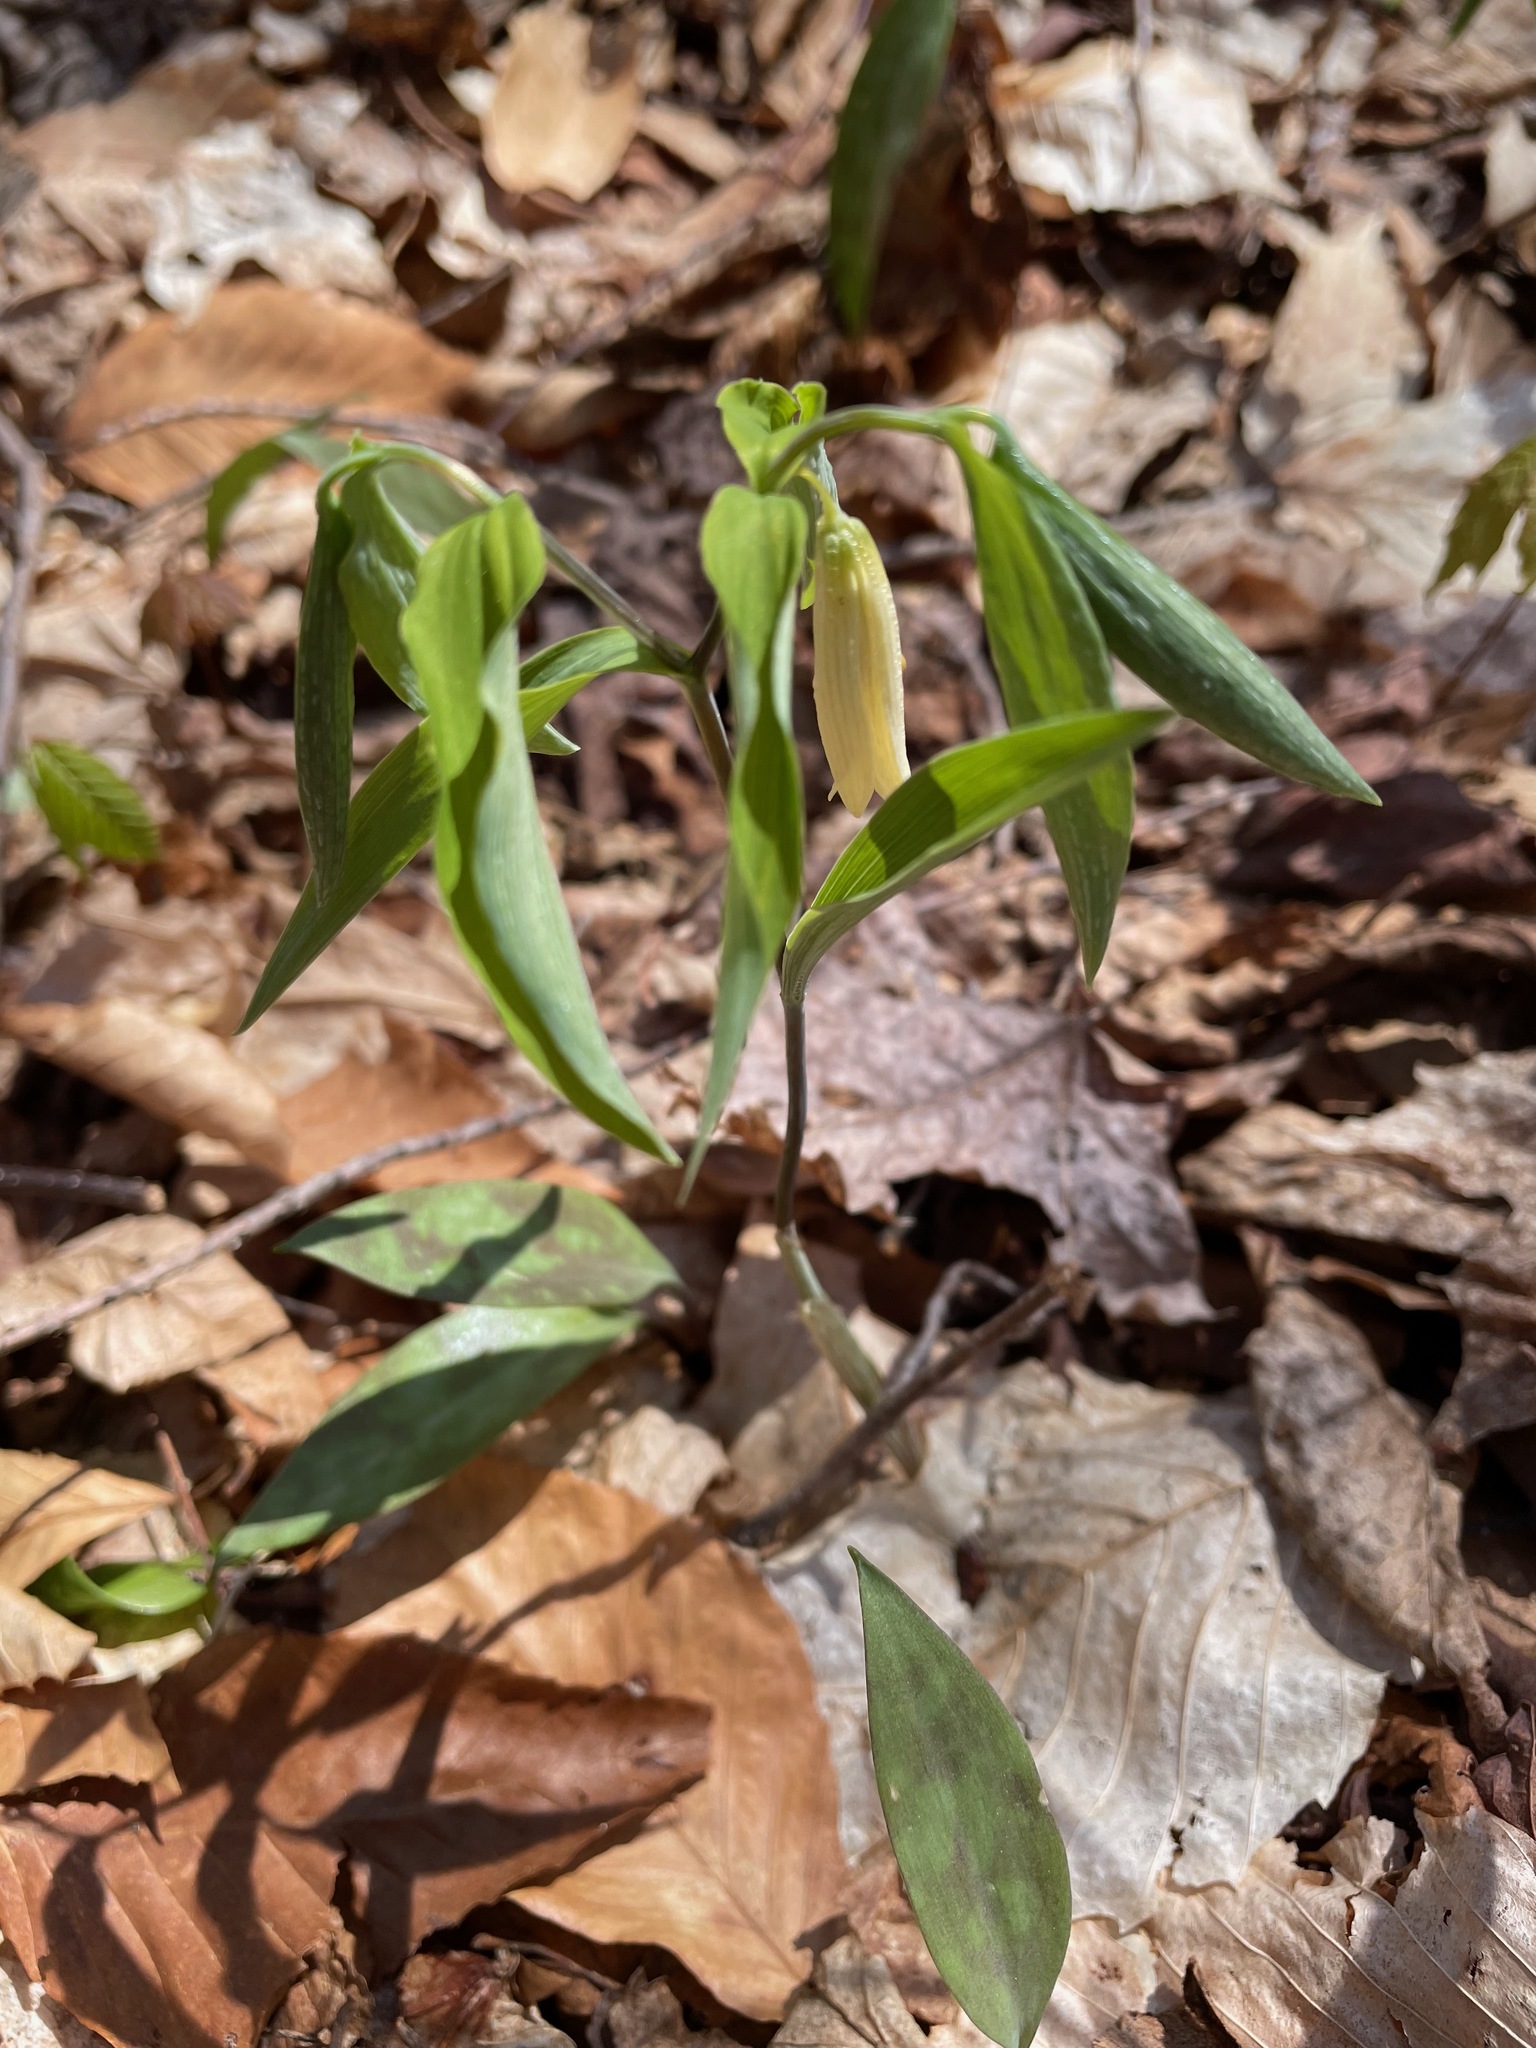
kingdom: Plantae
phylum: Tracheophyta
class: Liliopsida
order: Liliales
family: Colchicaceae
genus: Uvularia
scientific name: Uvularia sessilifolia
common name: Straw-lily
